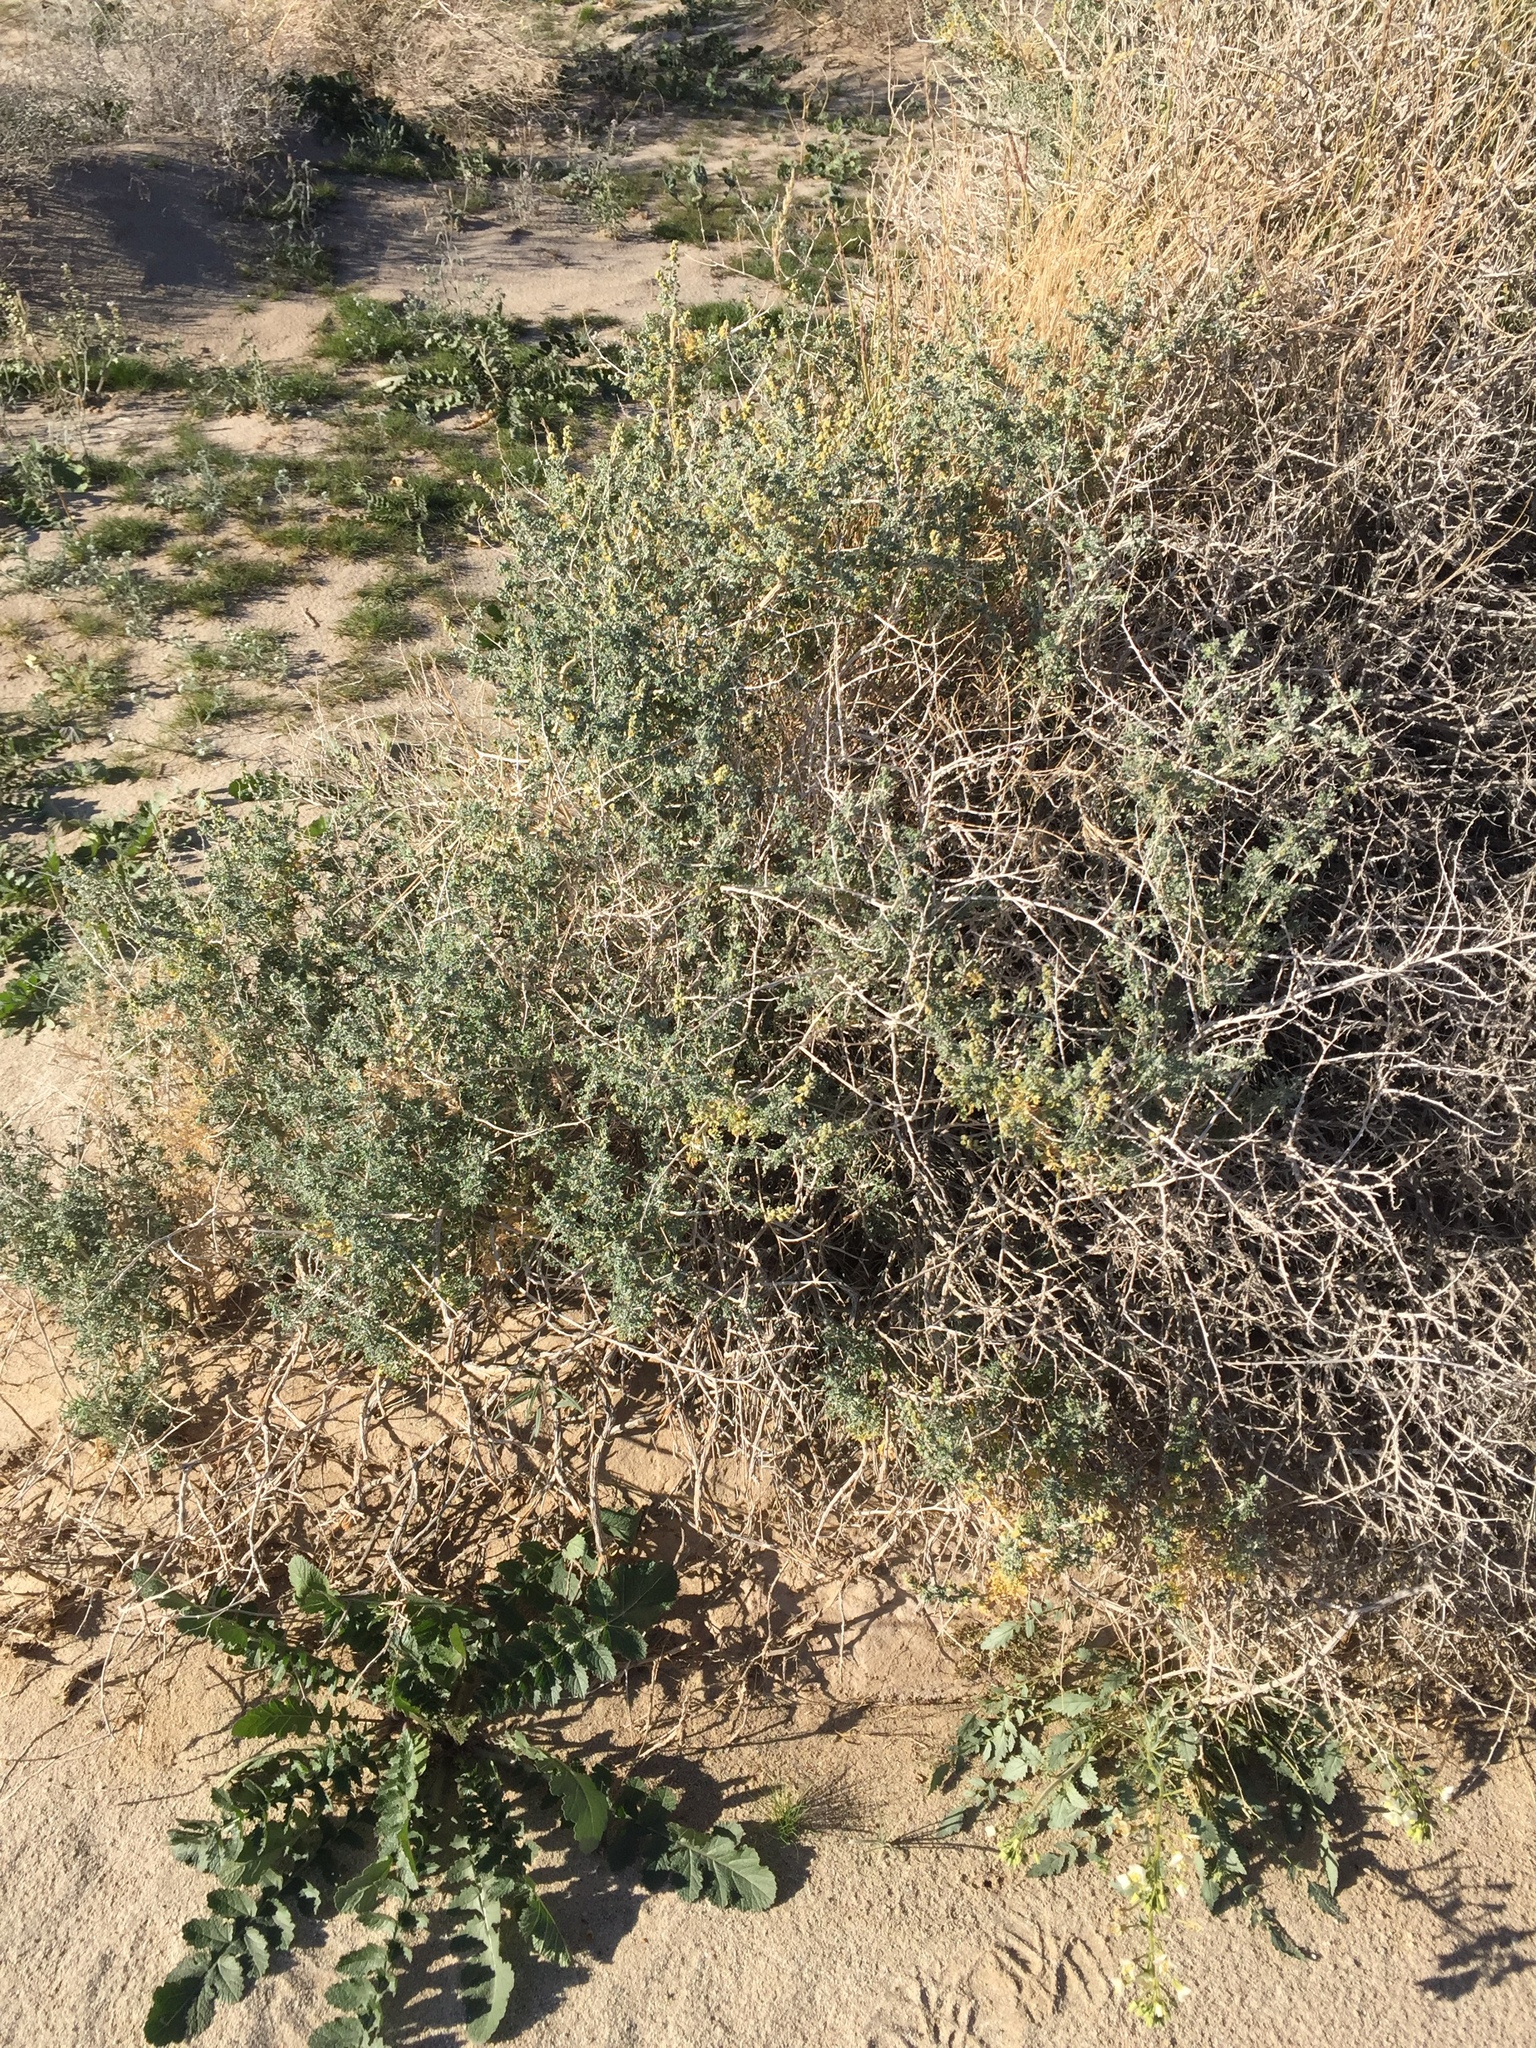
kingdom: Plantae
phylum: Tracheophyta
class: Magnoliopsida
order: Asterales
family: Asteraceae
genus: Ambrosia
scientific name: Ambrosia dumosa
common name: Bur-sage
